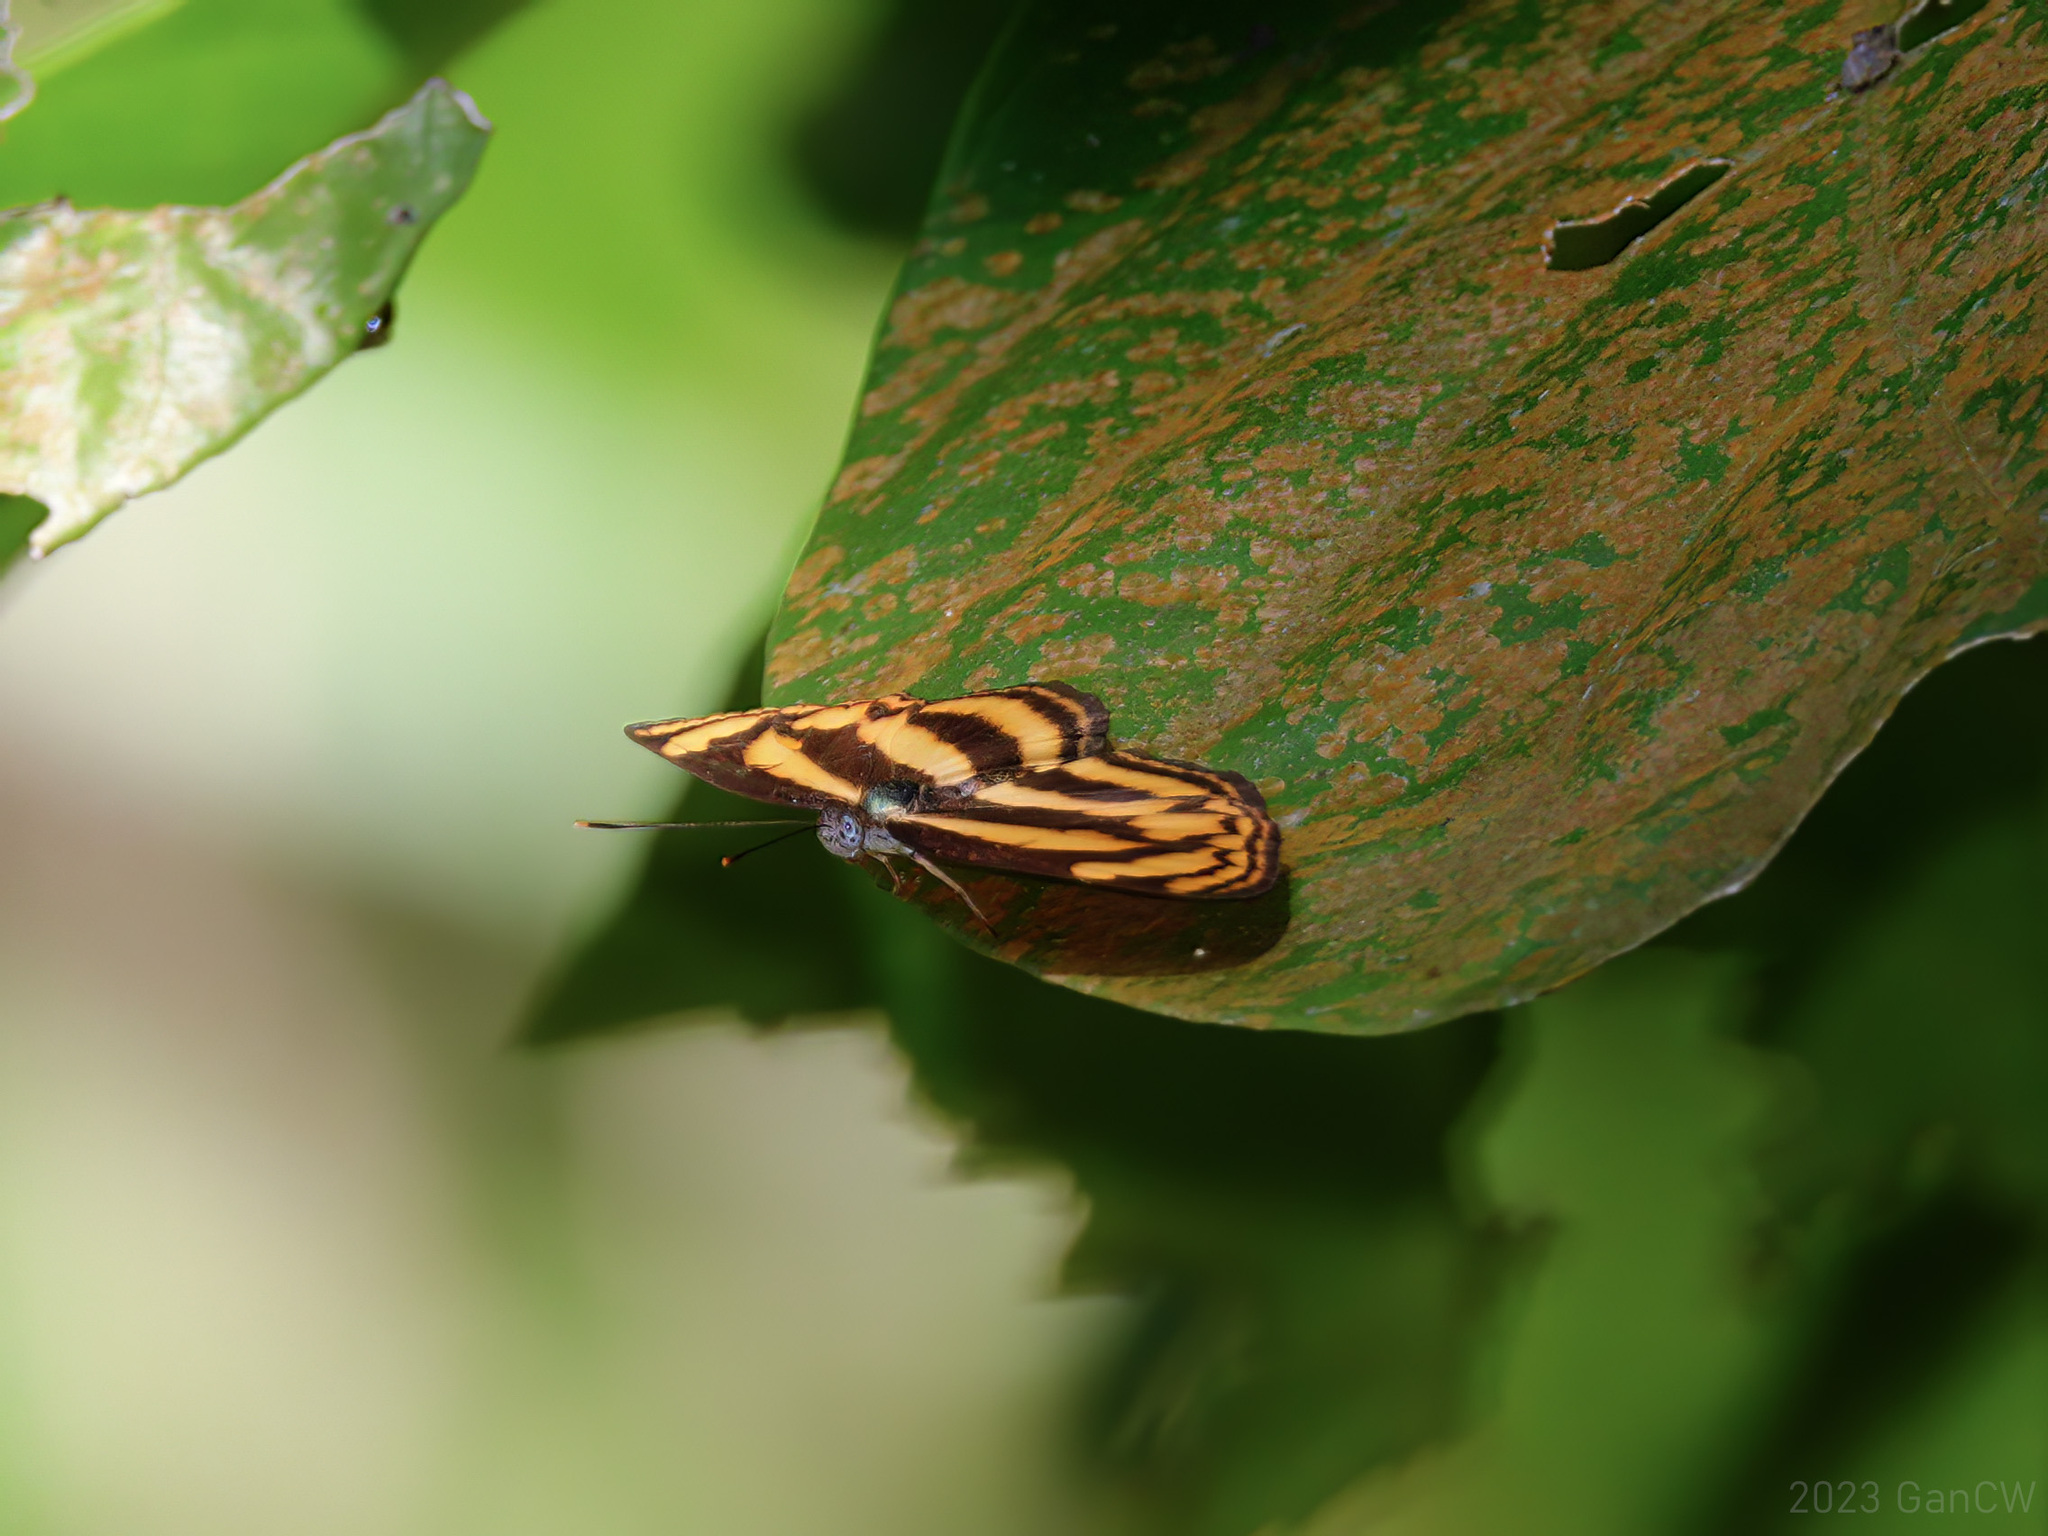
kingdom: Animalia
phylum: Arthropoda
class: Insecta
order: Lepidoptera
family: Nymphalidae
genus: Lasippa
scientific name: Lasippa tiga
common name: Malayan lascar
